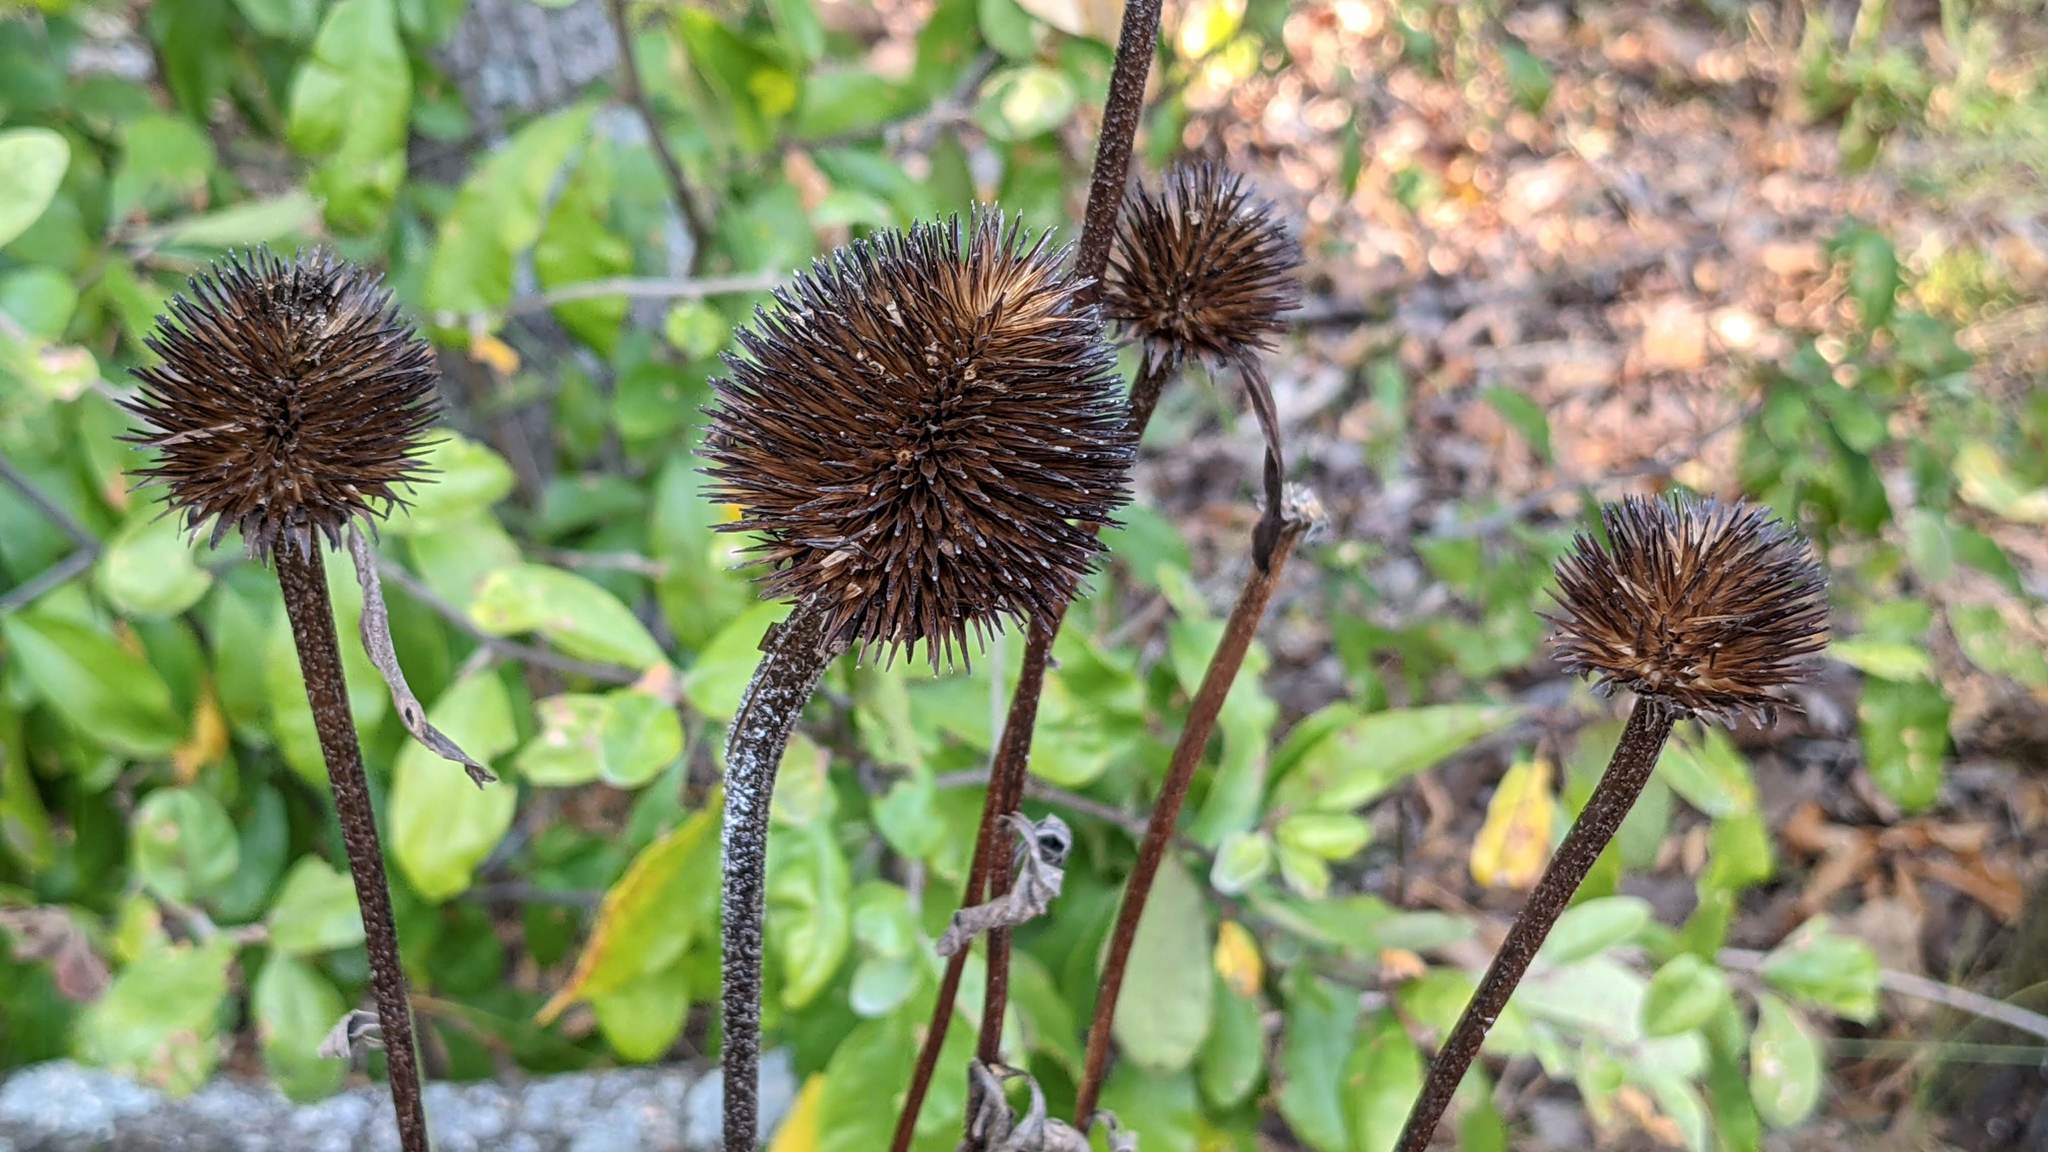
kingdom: Plantae
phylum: Tracheophyta
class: Magnoliopsida
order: Asterales
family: Asteraceae
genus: Echinacea
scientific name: Echinacea purpurea
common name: Broad-leaved purple coneflower
